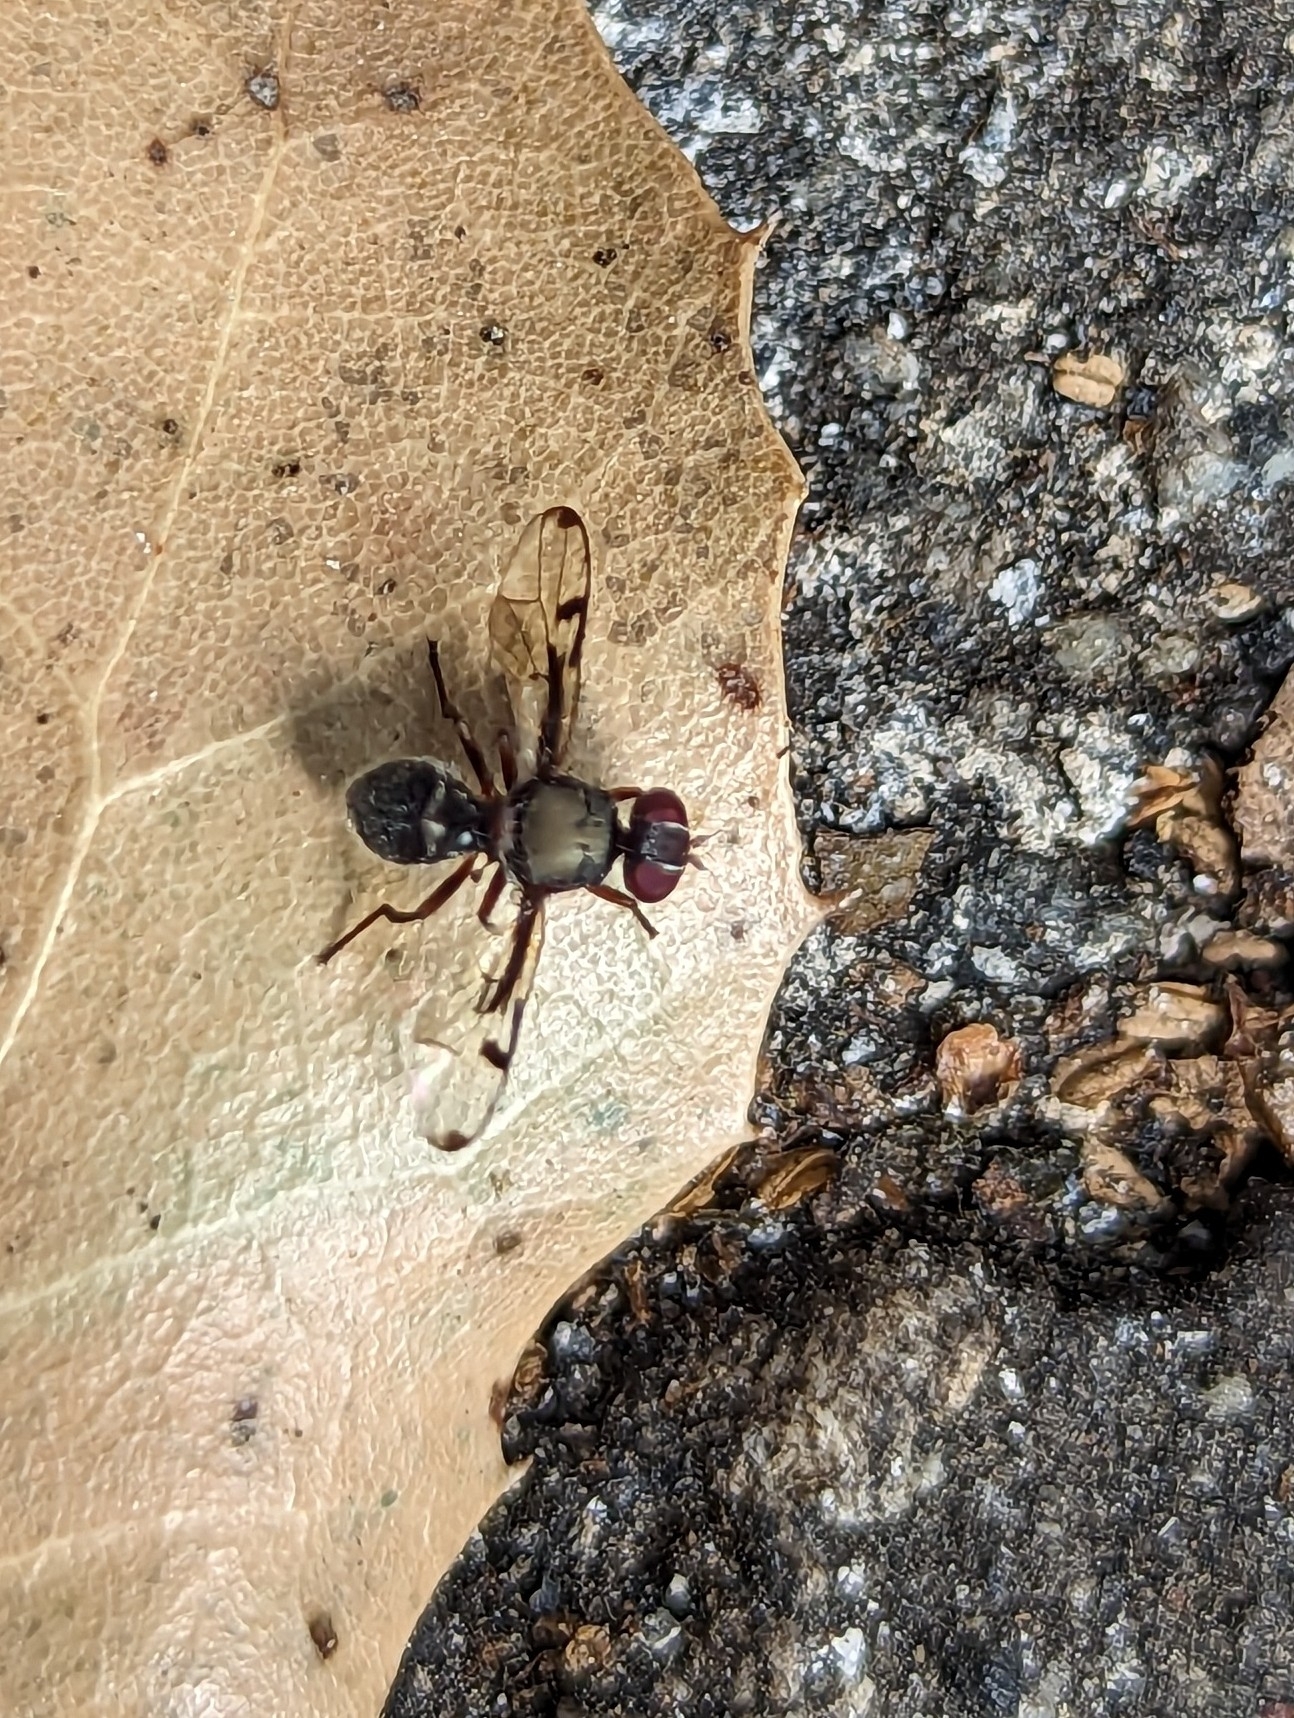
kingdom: Animalia
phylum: Arthropoda
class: Insecta
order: Diptera
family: Platystomatidae
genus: Pogonortalis
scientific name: Pogonortalis doclea
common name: Boatman fly
